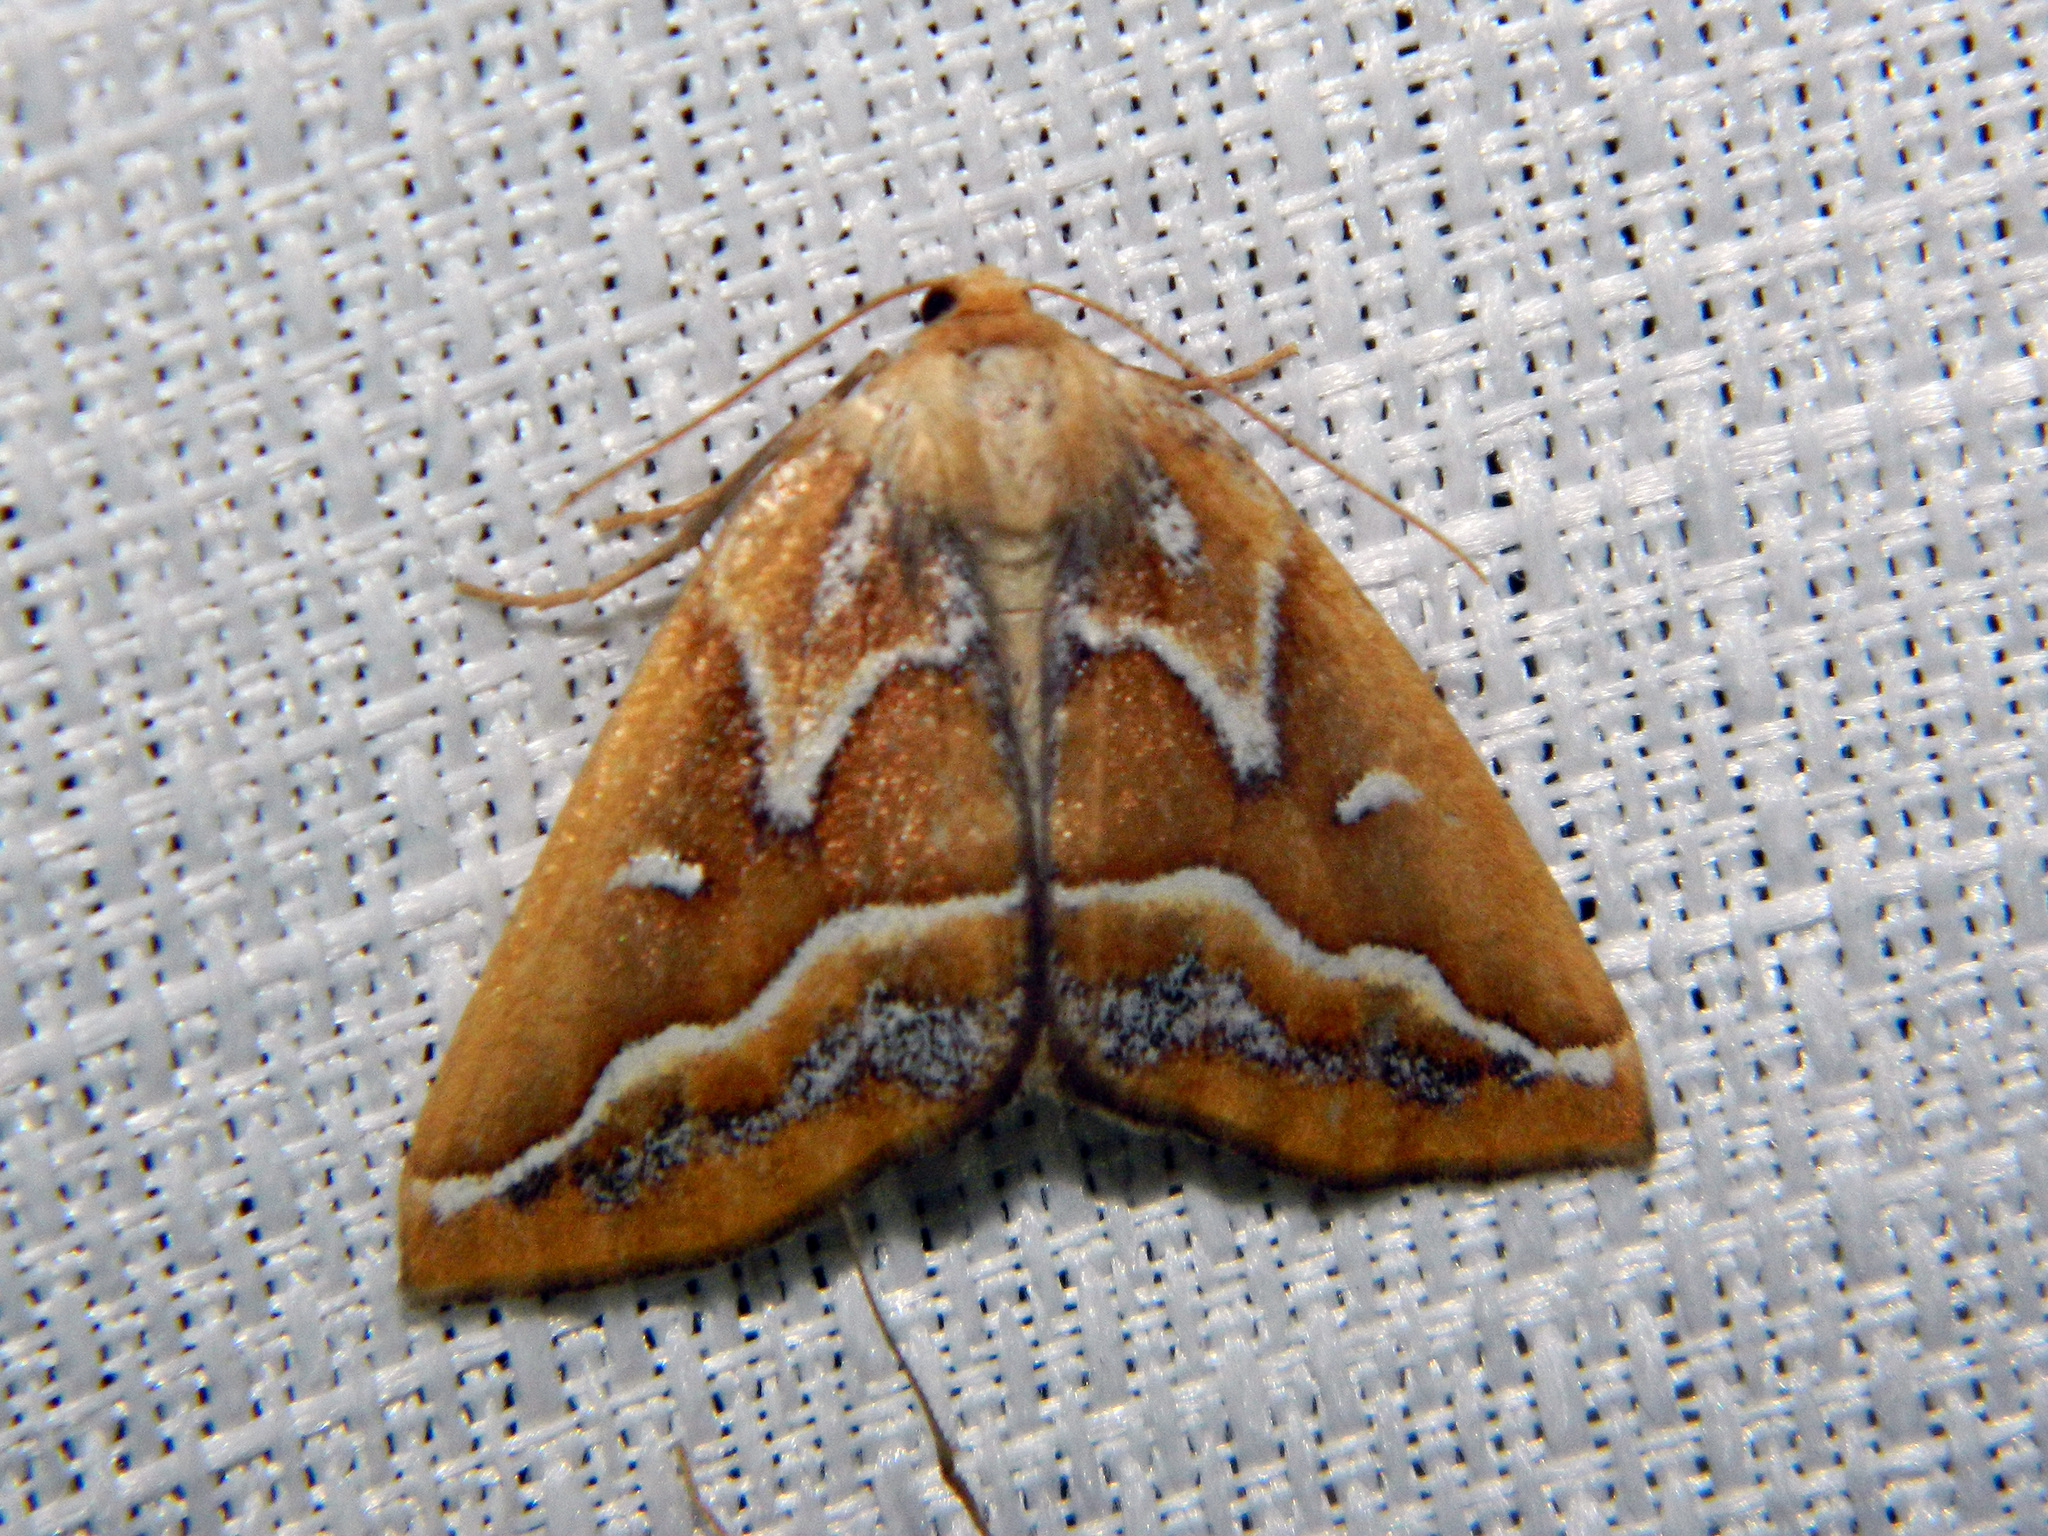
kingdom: Animalia
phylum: Arthropoda
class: Insecta
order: Lepidoptera
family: Geometridae
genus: Caripeta
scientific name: Caripeta angustiorata
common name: Brown pine looper
